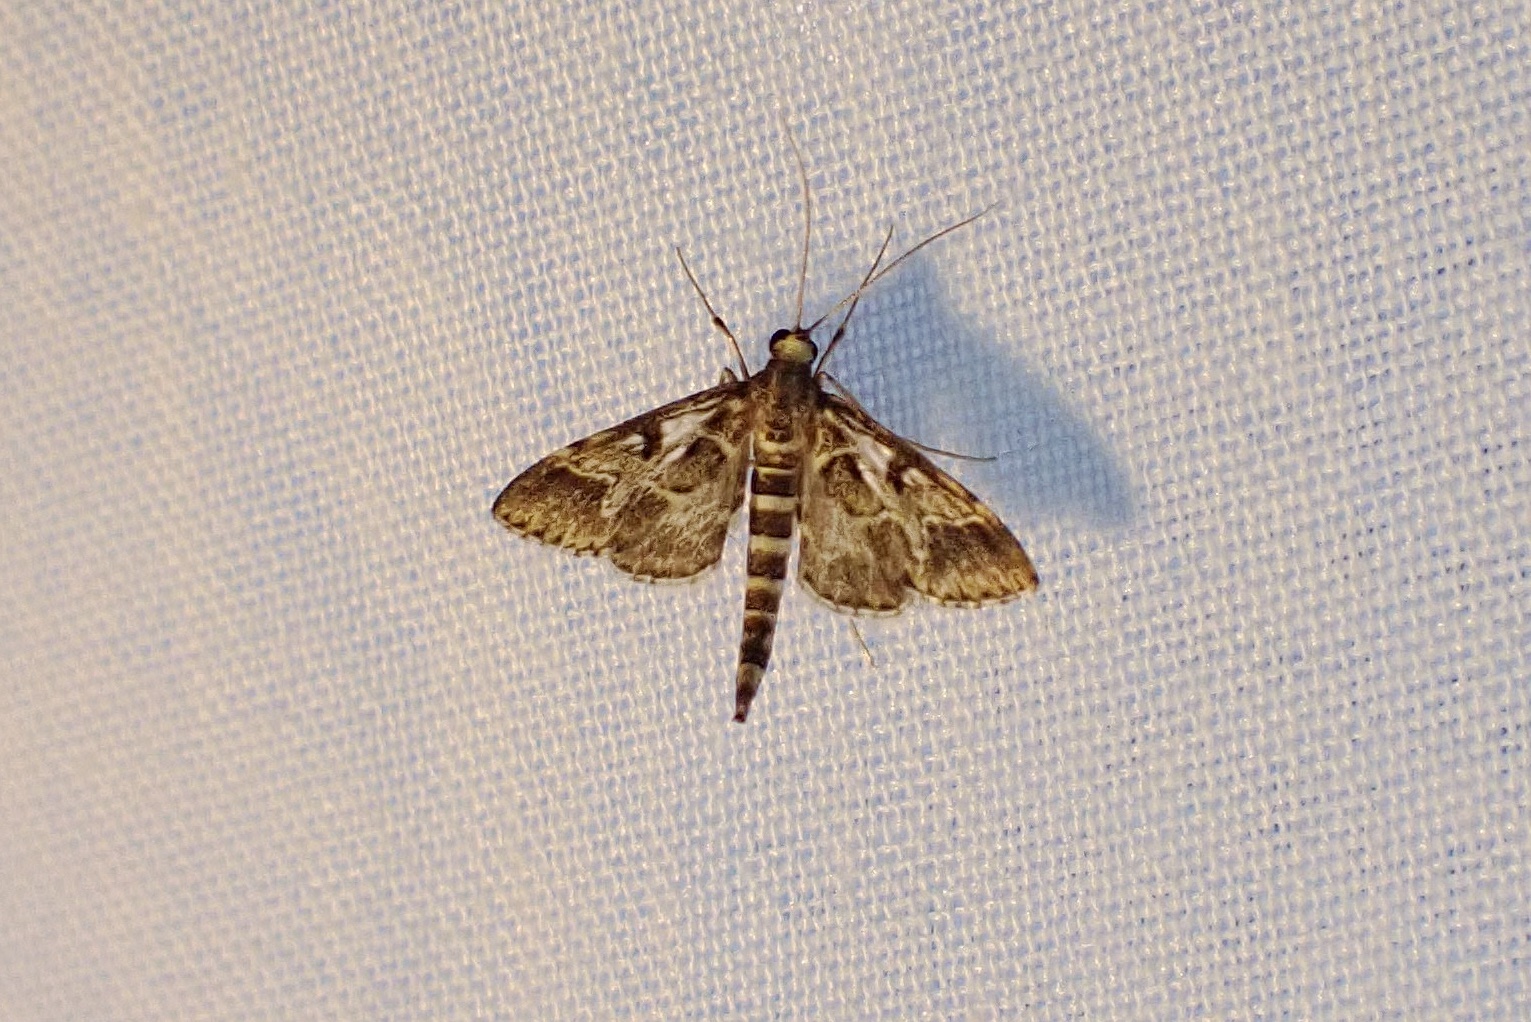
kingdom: Animalia
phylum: Arthropoda
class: Insecta
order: Lepidoptera
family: Crambidae
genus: Duponchelia
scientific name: Duponchelia fovealis
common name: Crambid moth
